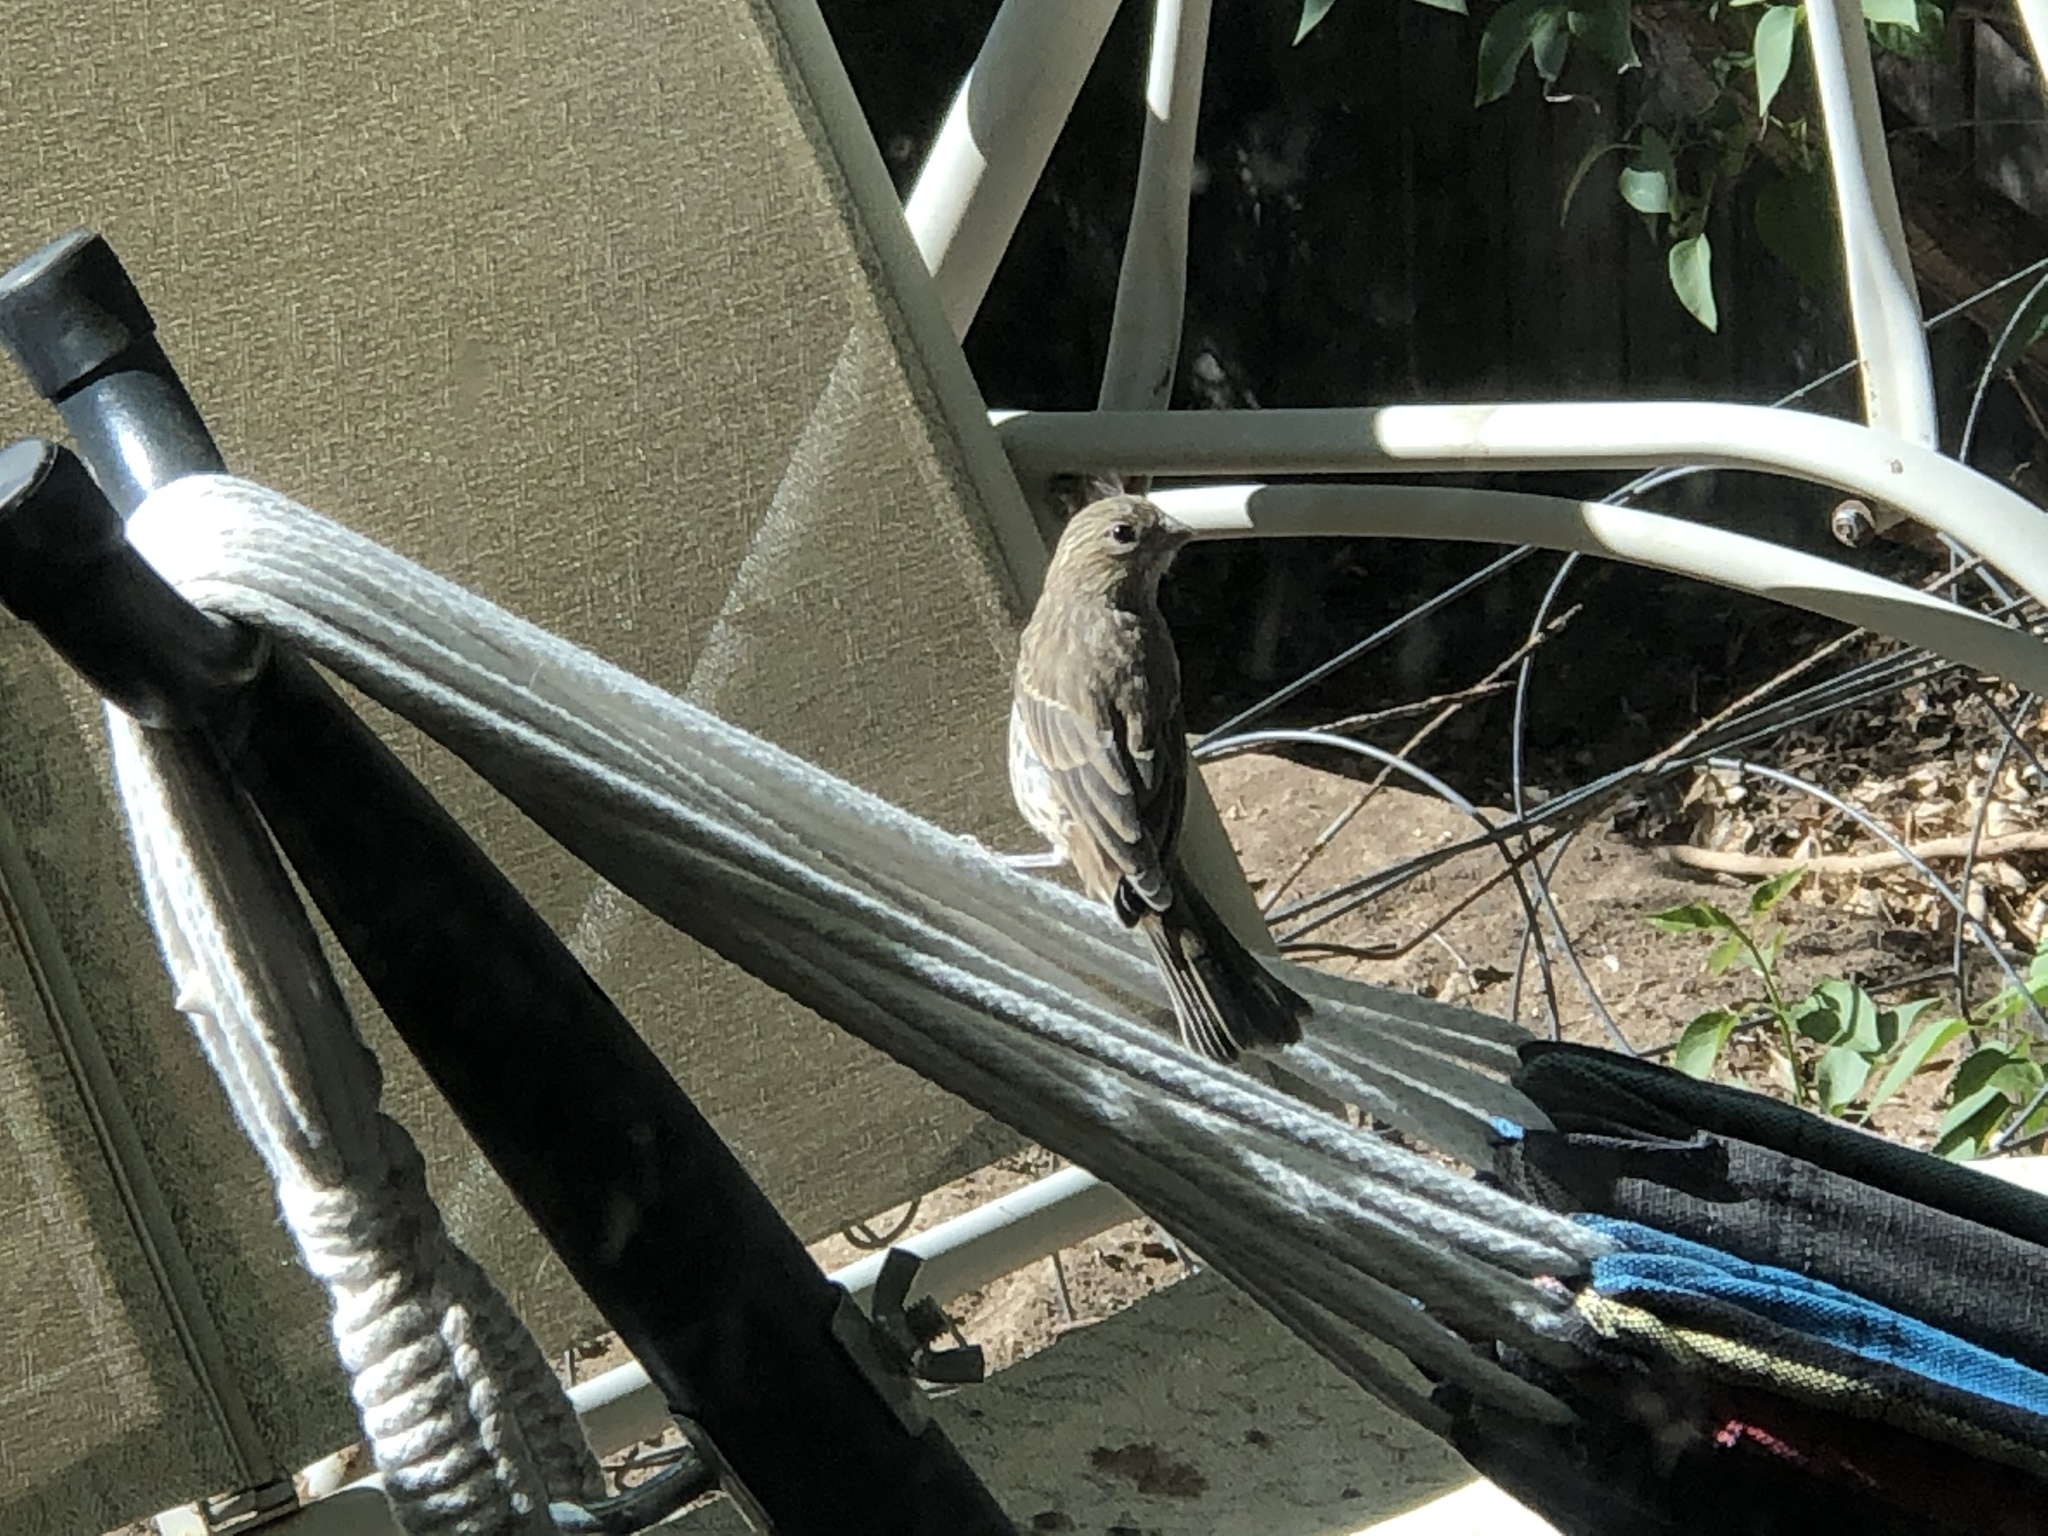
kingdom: Animalia
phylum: Chordata
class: Aves
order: Passeriformes
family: Fringillidae
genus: Haemorhous
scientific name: Haemorhous mexicanus
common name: House finch
